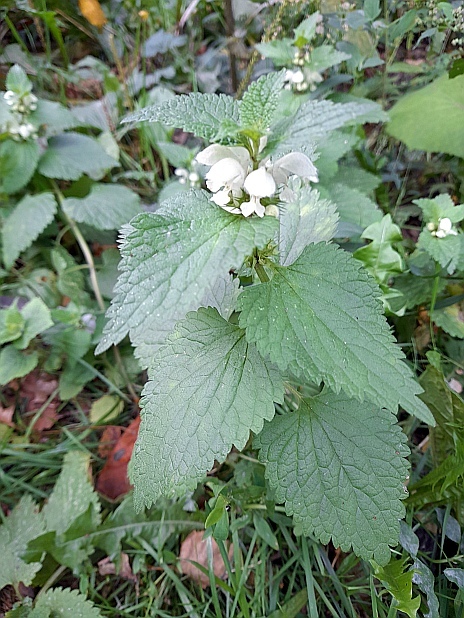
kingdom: Plantae
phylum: Tracheophyta
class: Magnoliopsida
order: Lamiales
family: Lamiaceae
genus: Lamium
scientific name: Lamium album
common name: White dead-nettle
